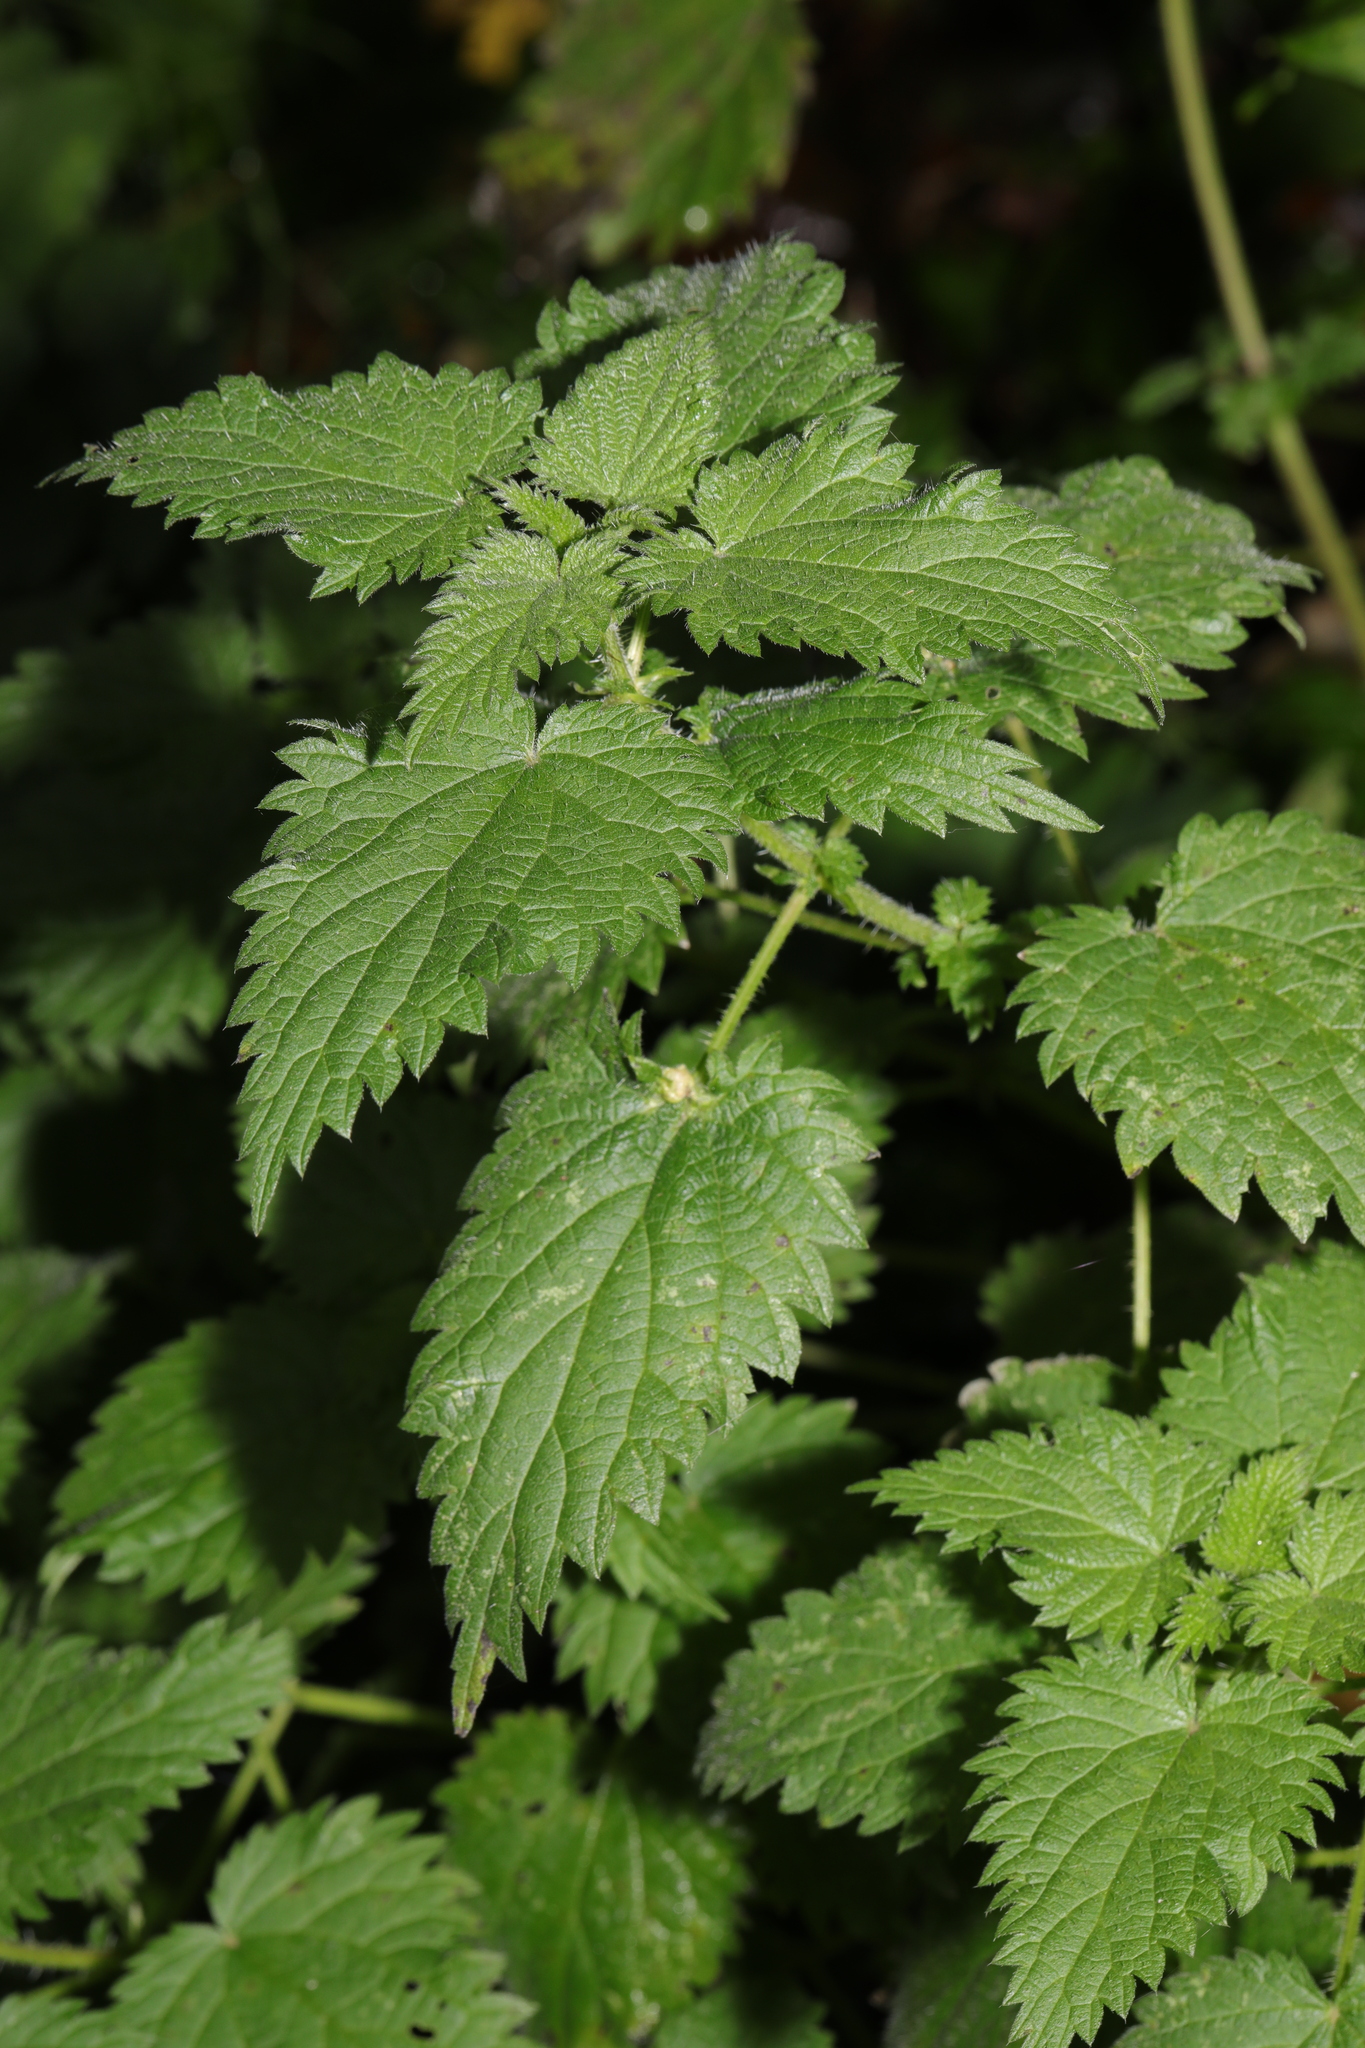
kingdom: Plantae
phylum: Tracheophyta
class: Magnoliopsida
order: Rosales
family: Urticaceae
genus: Urtica
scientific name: Urtica dioica
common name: Common nettle
